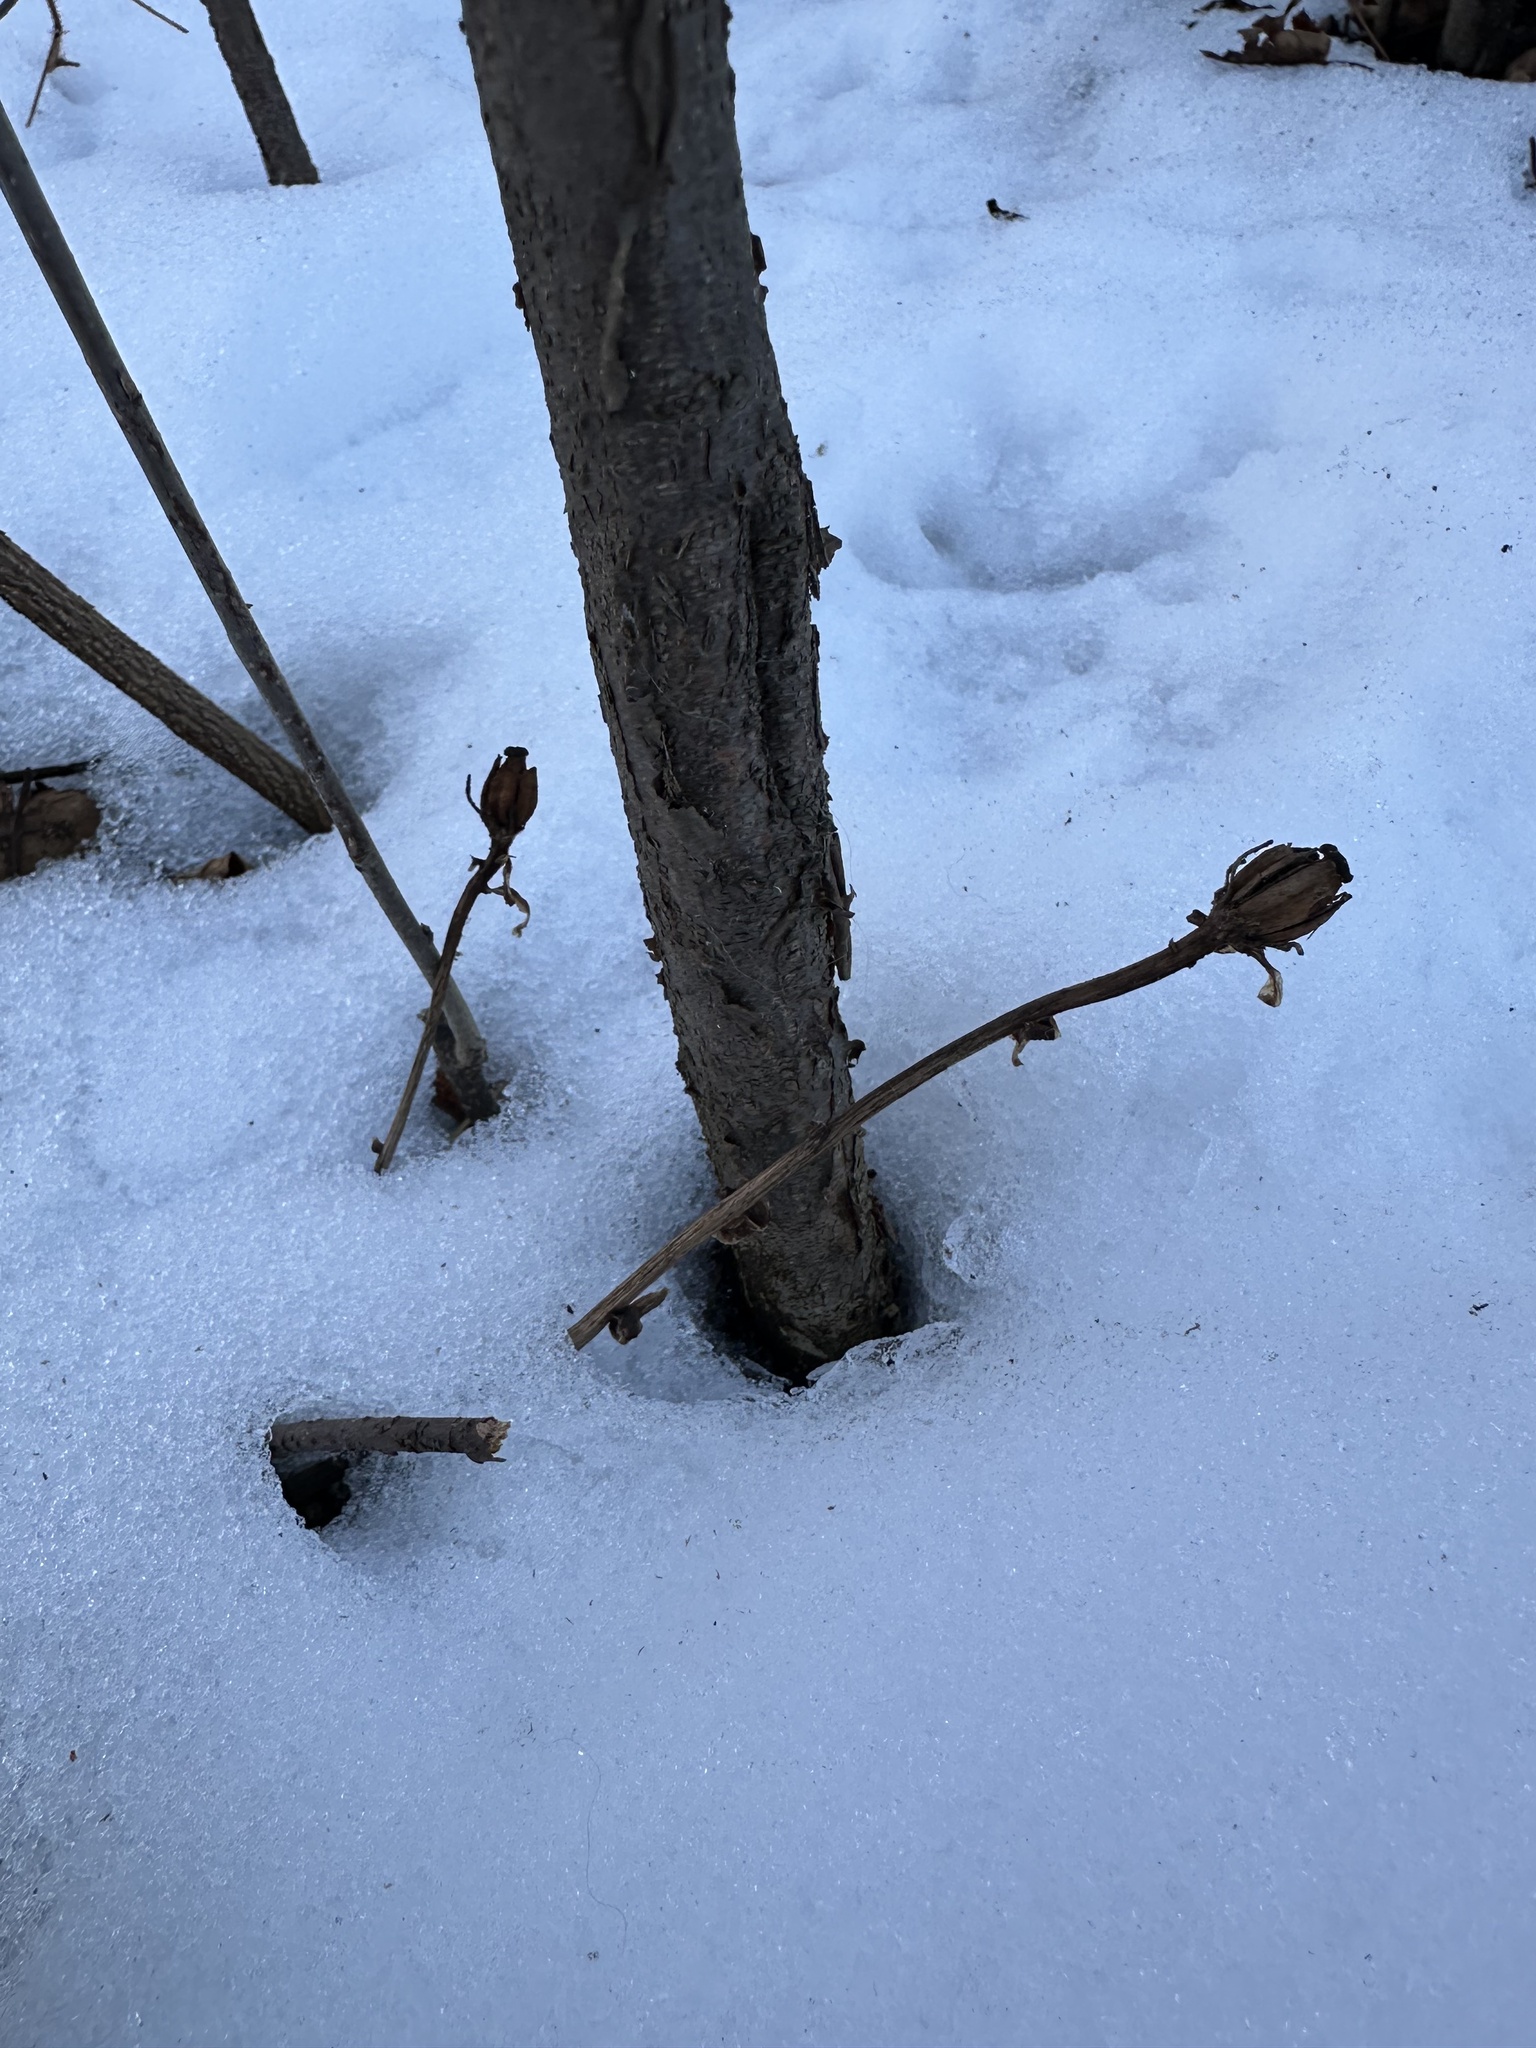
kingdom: Plantae
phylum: Tracheophyta
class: Magnoliopsida
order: Ericales
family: Ericaceae
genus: Monotropa
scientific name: Monotropa uniflora
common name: Convulsion root
